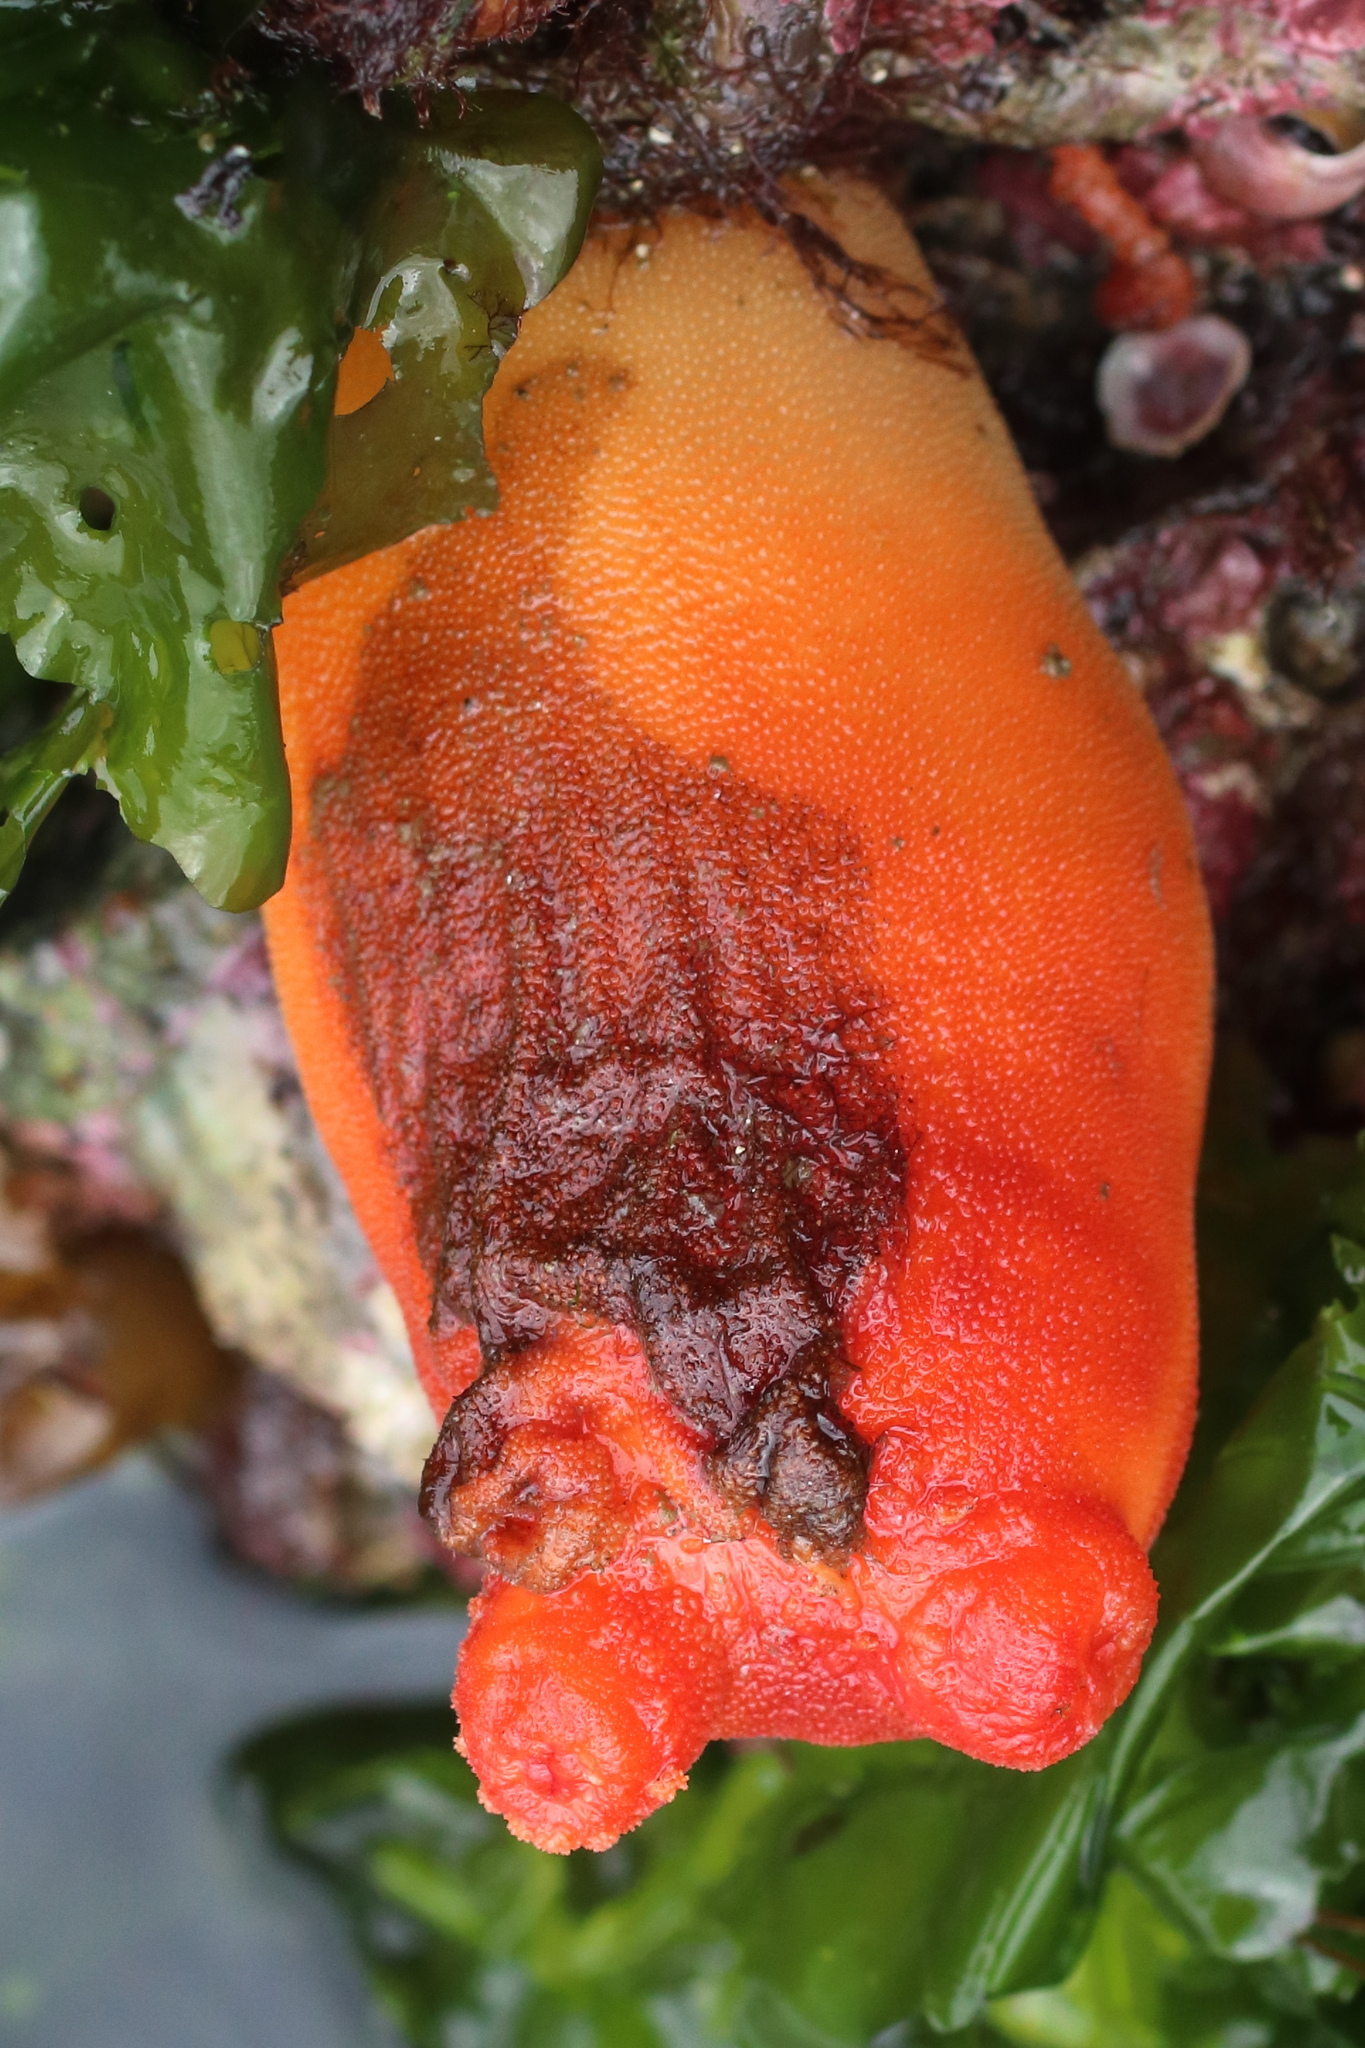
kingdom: Animalia
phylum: Chordata
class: Ascidiacea
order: Stolidobranchia
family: Pyuridae
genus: Halocynthia
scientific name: Halocynthia aurantium
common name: Sea peach
